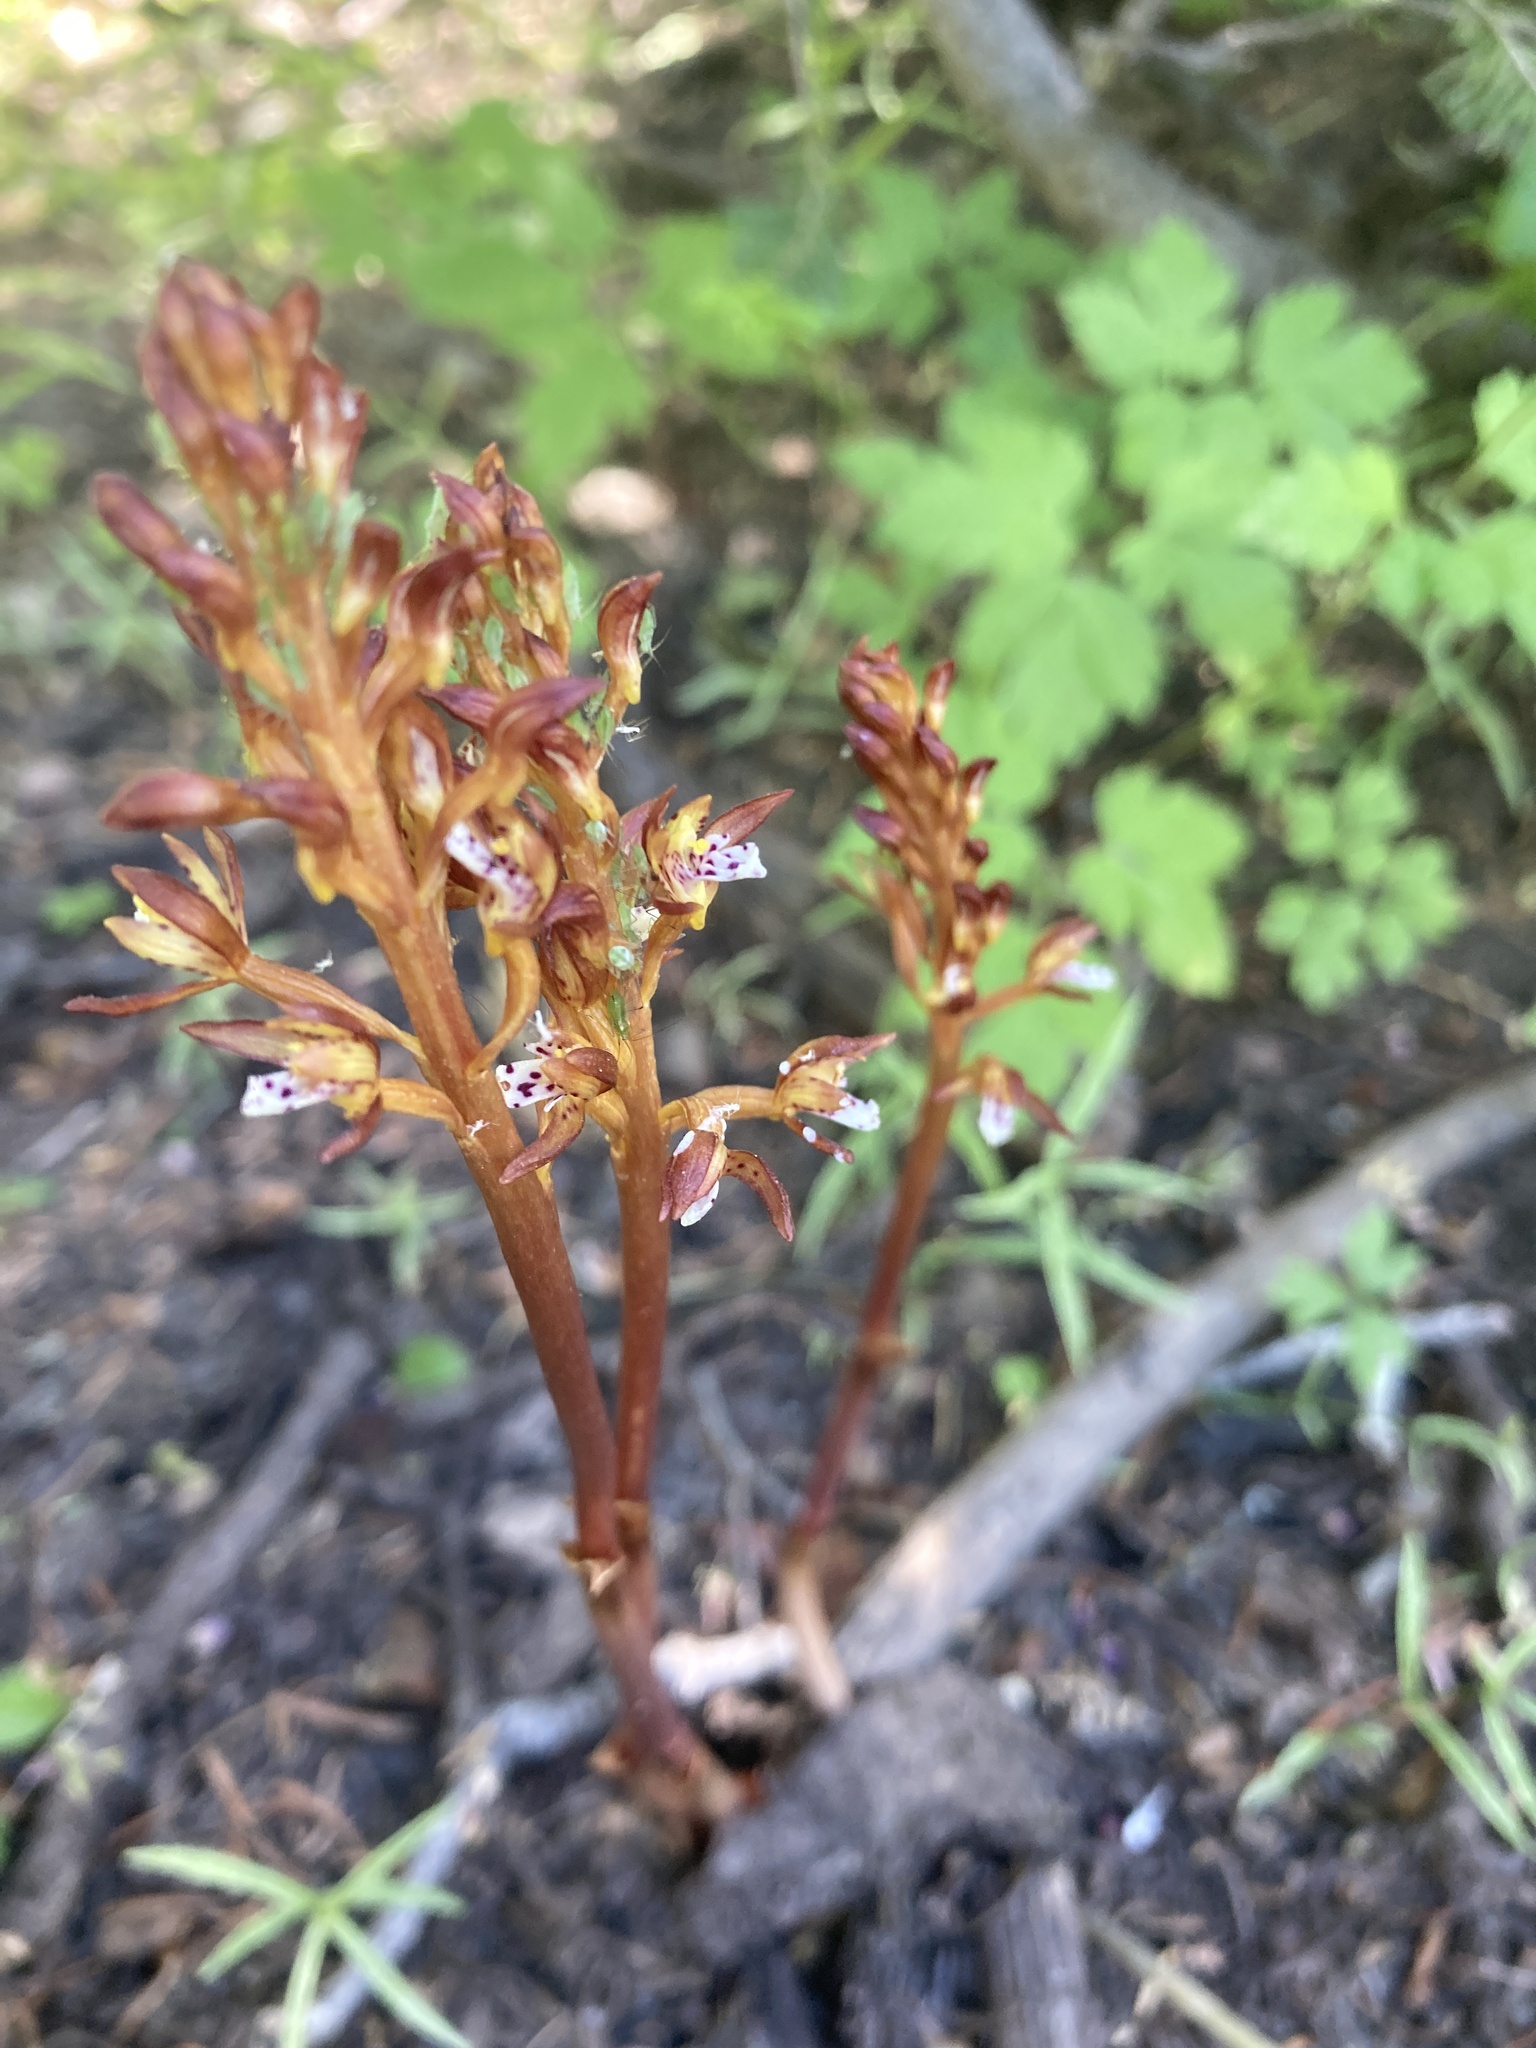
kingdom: Plantae
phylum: Tracheophyta
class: Liliopsida
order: Asparagales
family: Orchidaceae
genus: Corallorhiza
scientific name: Corallorhiza maculata
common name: Spotted coralroot
